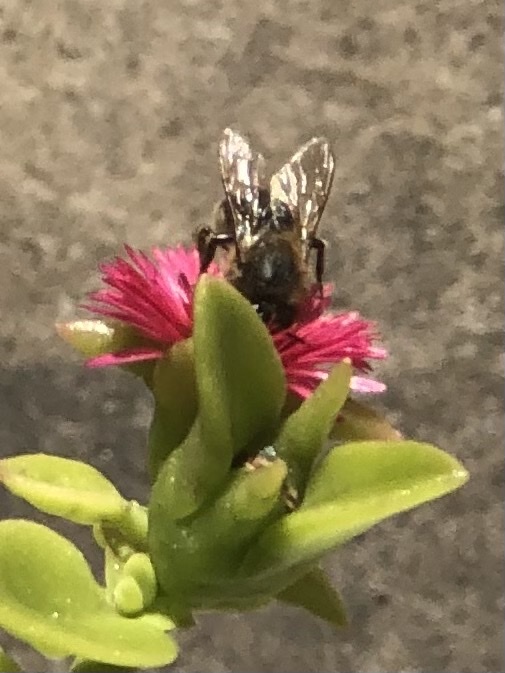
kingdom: Animalia
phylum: Arthropoda
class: Insecta
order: Hymenoptera
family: Apidae
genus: Apis
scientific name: Apis mellifera
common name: Honey bee
